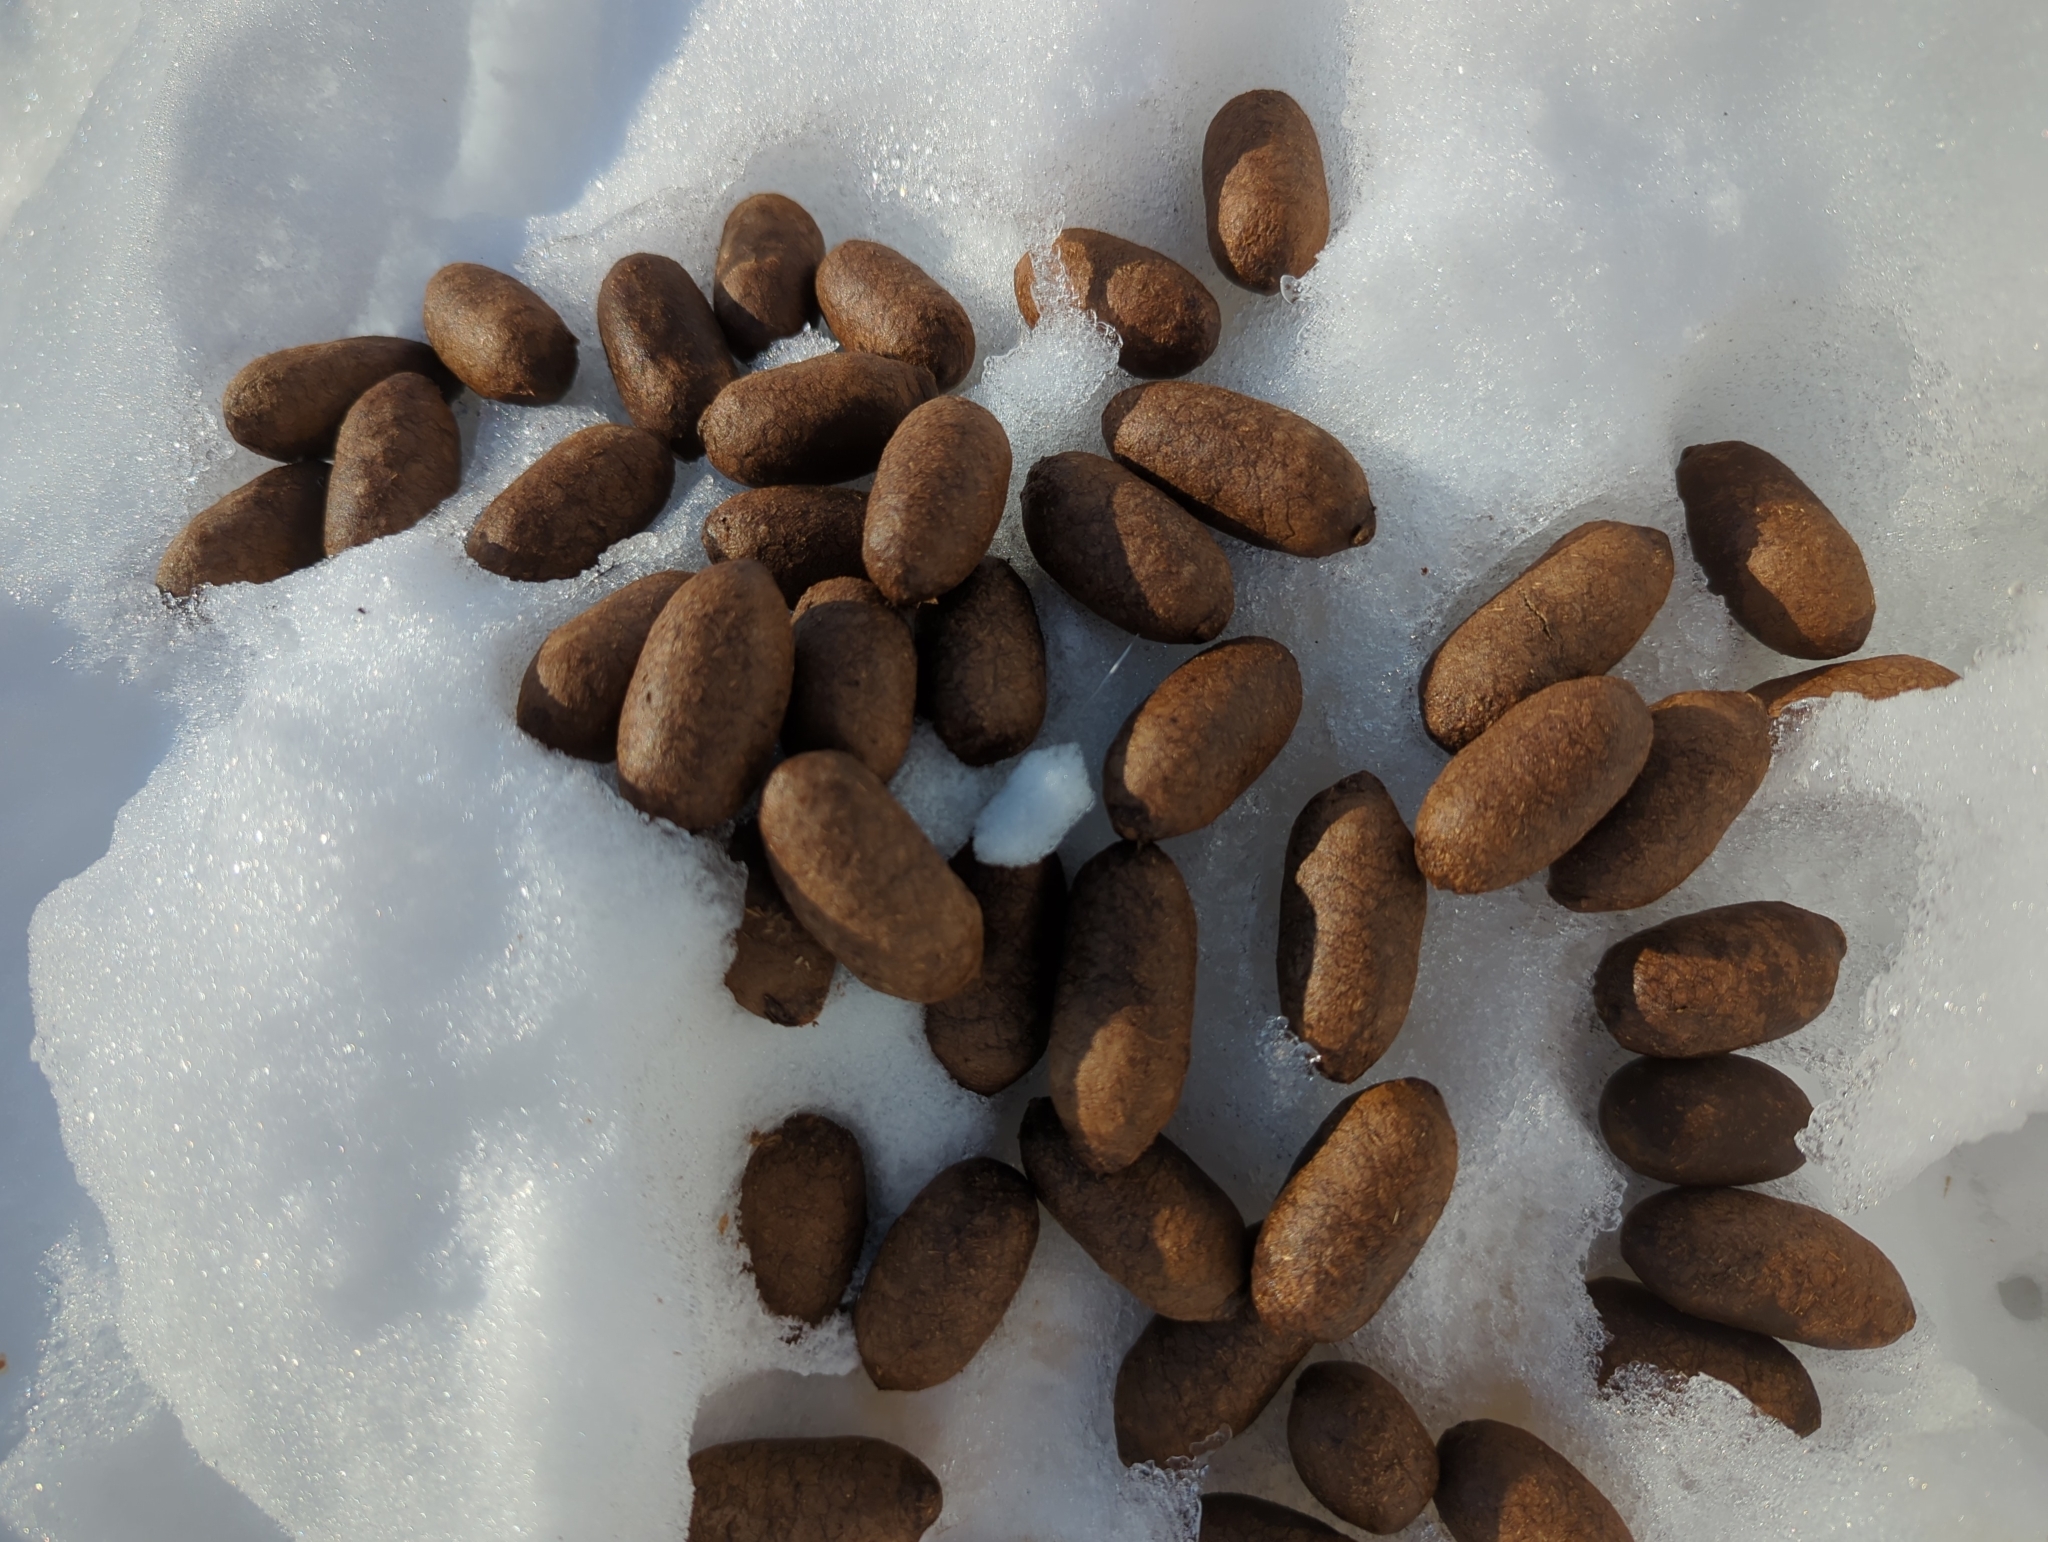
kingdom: Animalia
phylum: Chordata
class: Mammalia
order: Artiodactyla
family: Cervidae
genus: Alces
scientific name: Alces alces
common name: Moose
